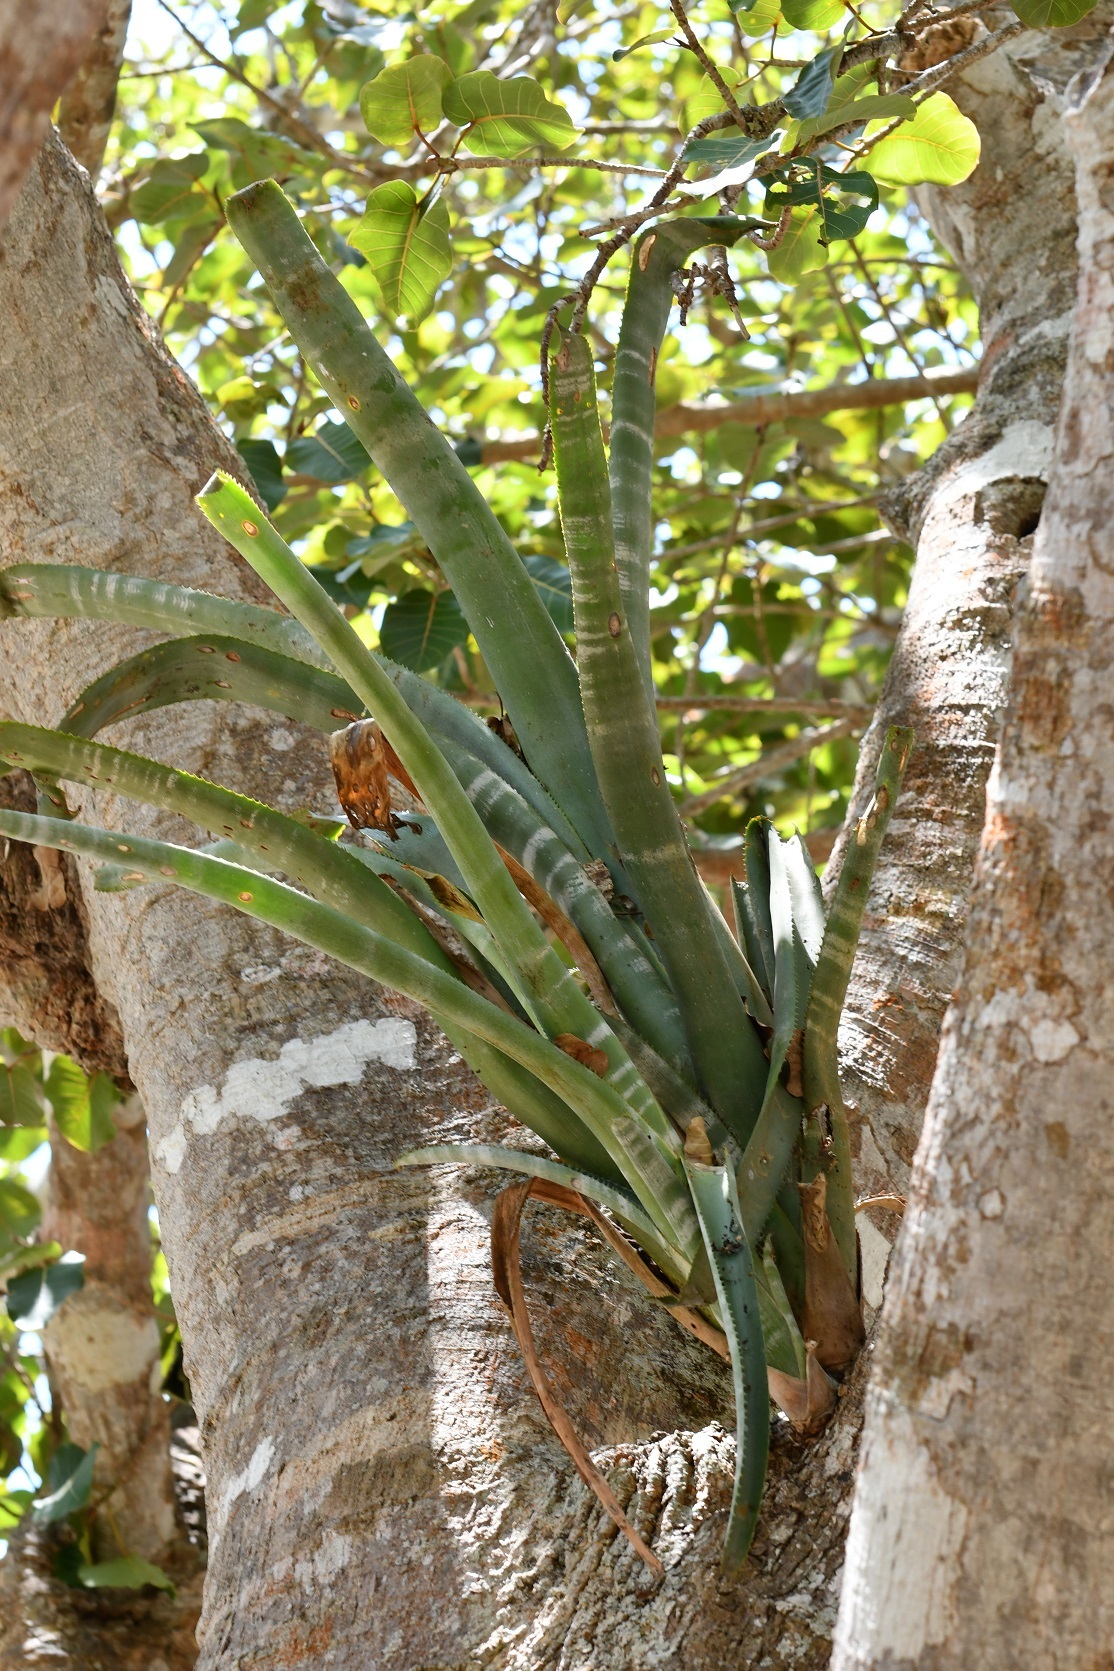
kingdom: Plantae
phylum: Tracheophyta
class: Liliopsida
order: Poales
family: Bromeliaceae
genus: Billbergia
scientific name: Billbergia pallidiflora
